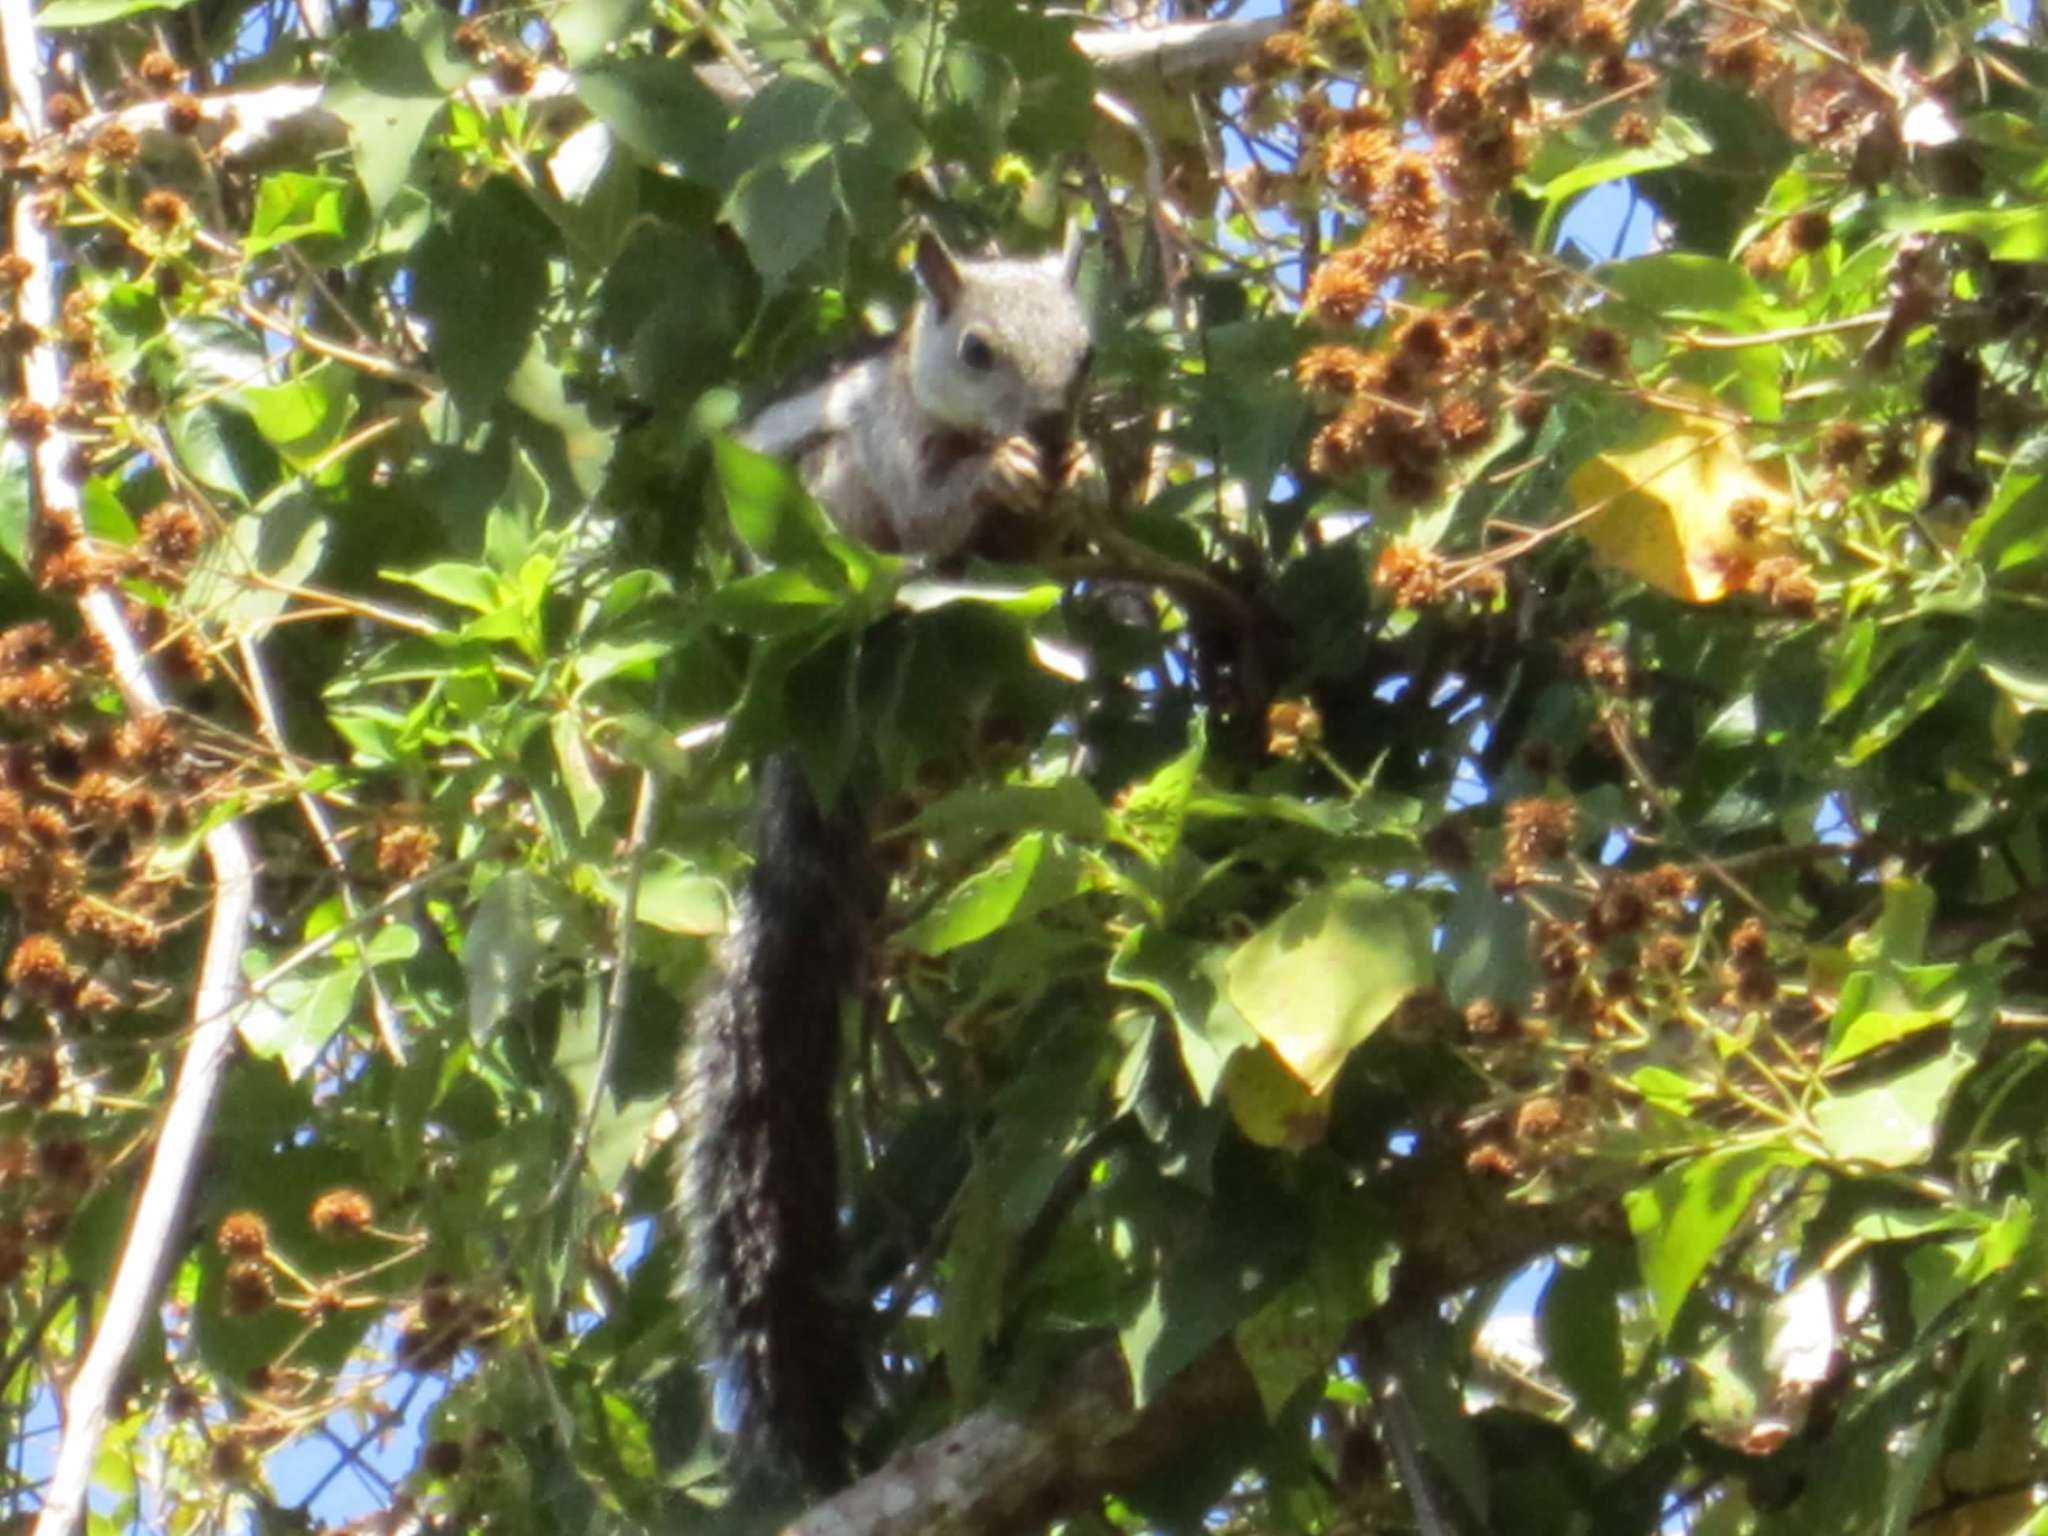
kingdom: Animalia
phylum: Chordata
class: Mammalia
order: Rodentia
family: Sciuridae
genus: Sciurus
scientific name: Sciurus variegatoides
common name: Variegated squirrel
